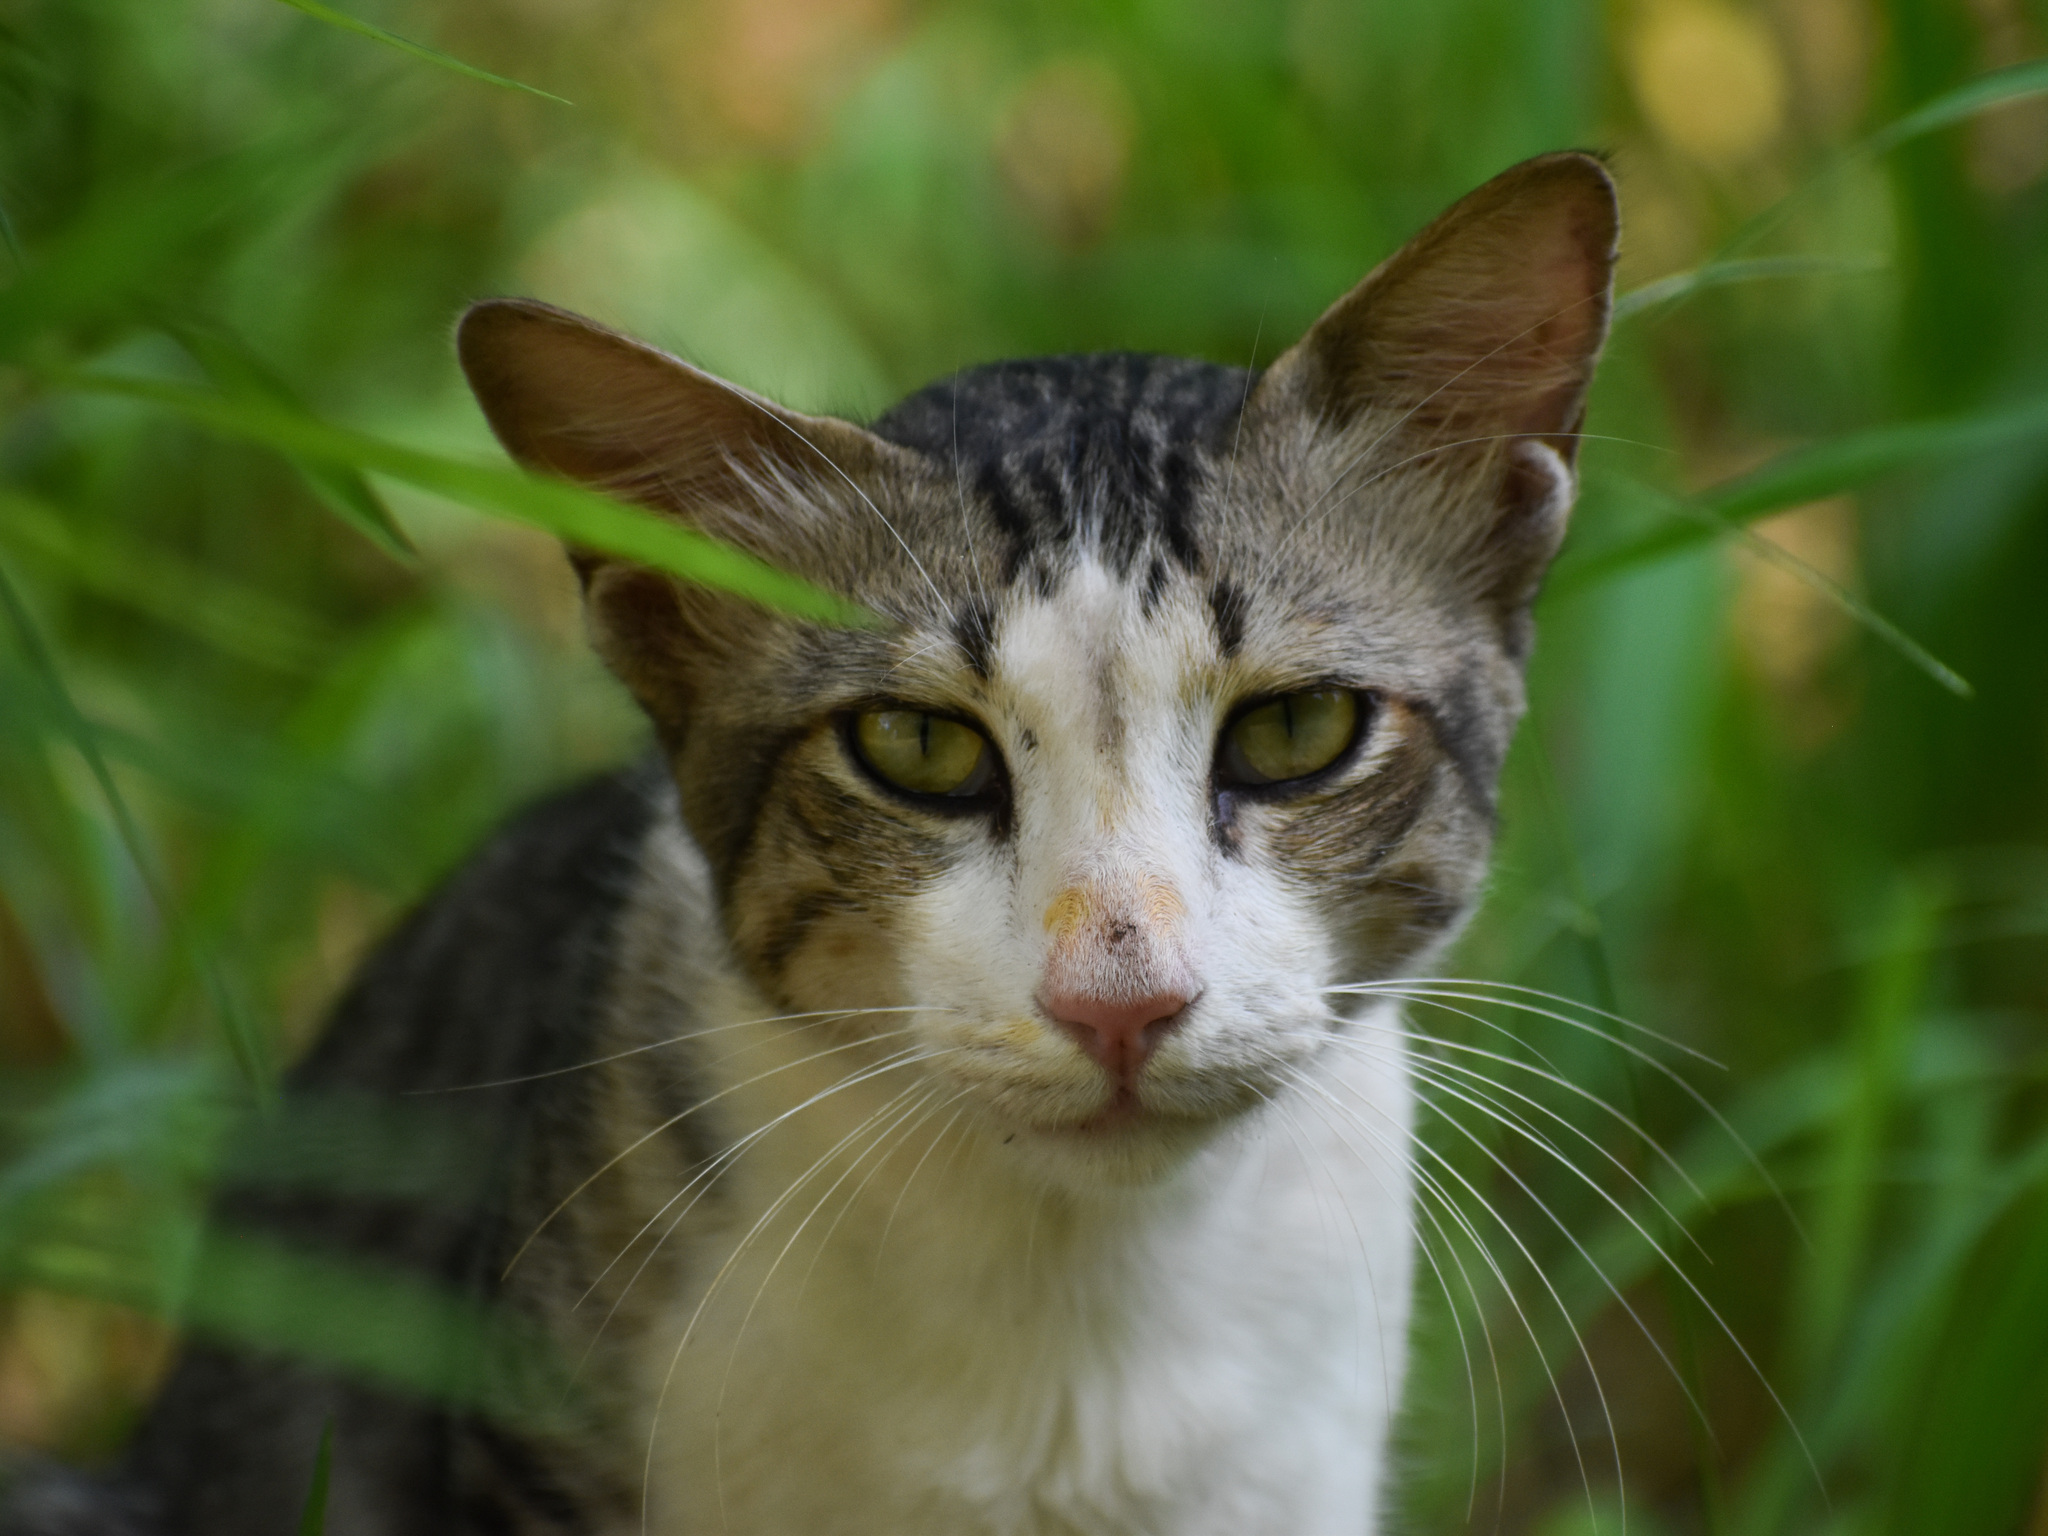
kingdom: Animalia
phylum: Chordata
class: Mammalia
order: Carnivora
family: Felidae
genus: Felis
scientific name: Felis catus
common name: Domestic cat
